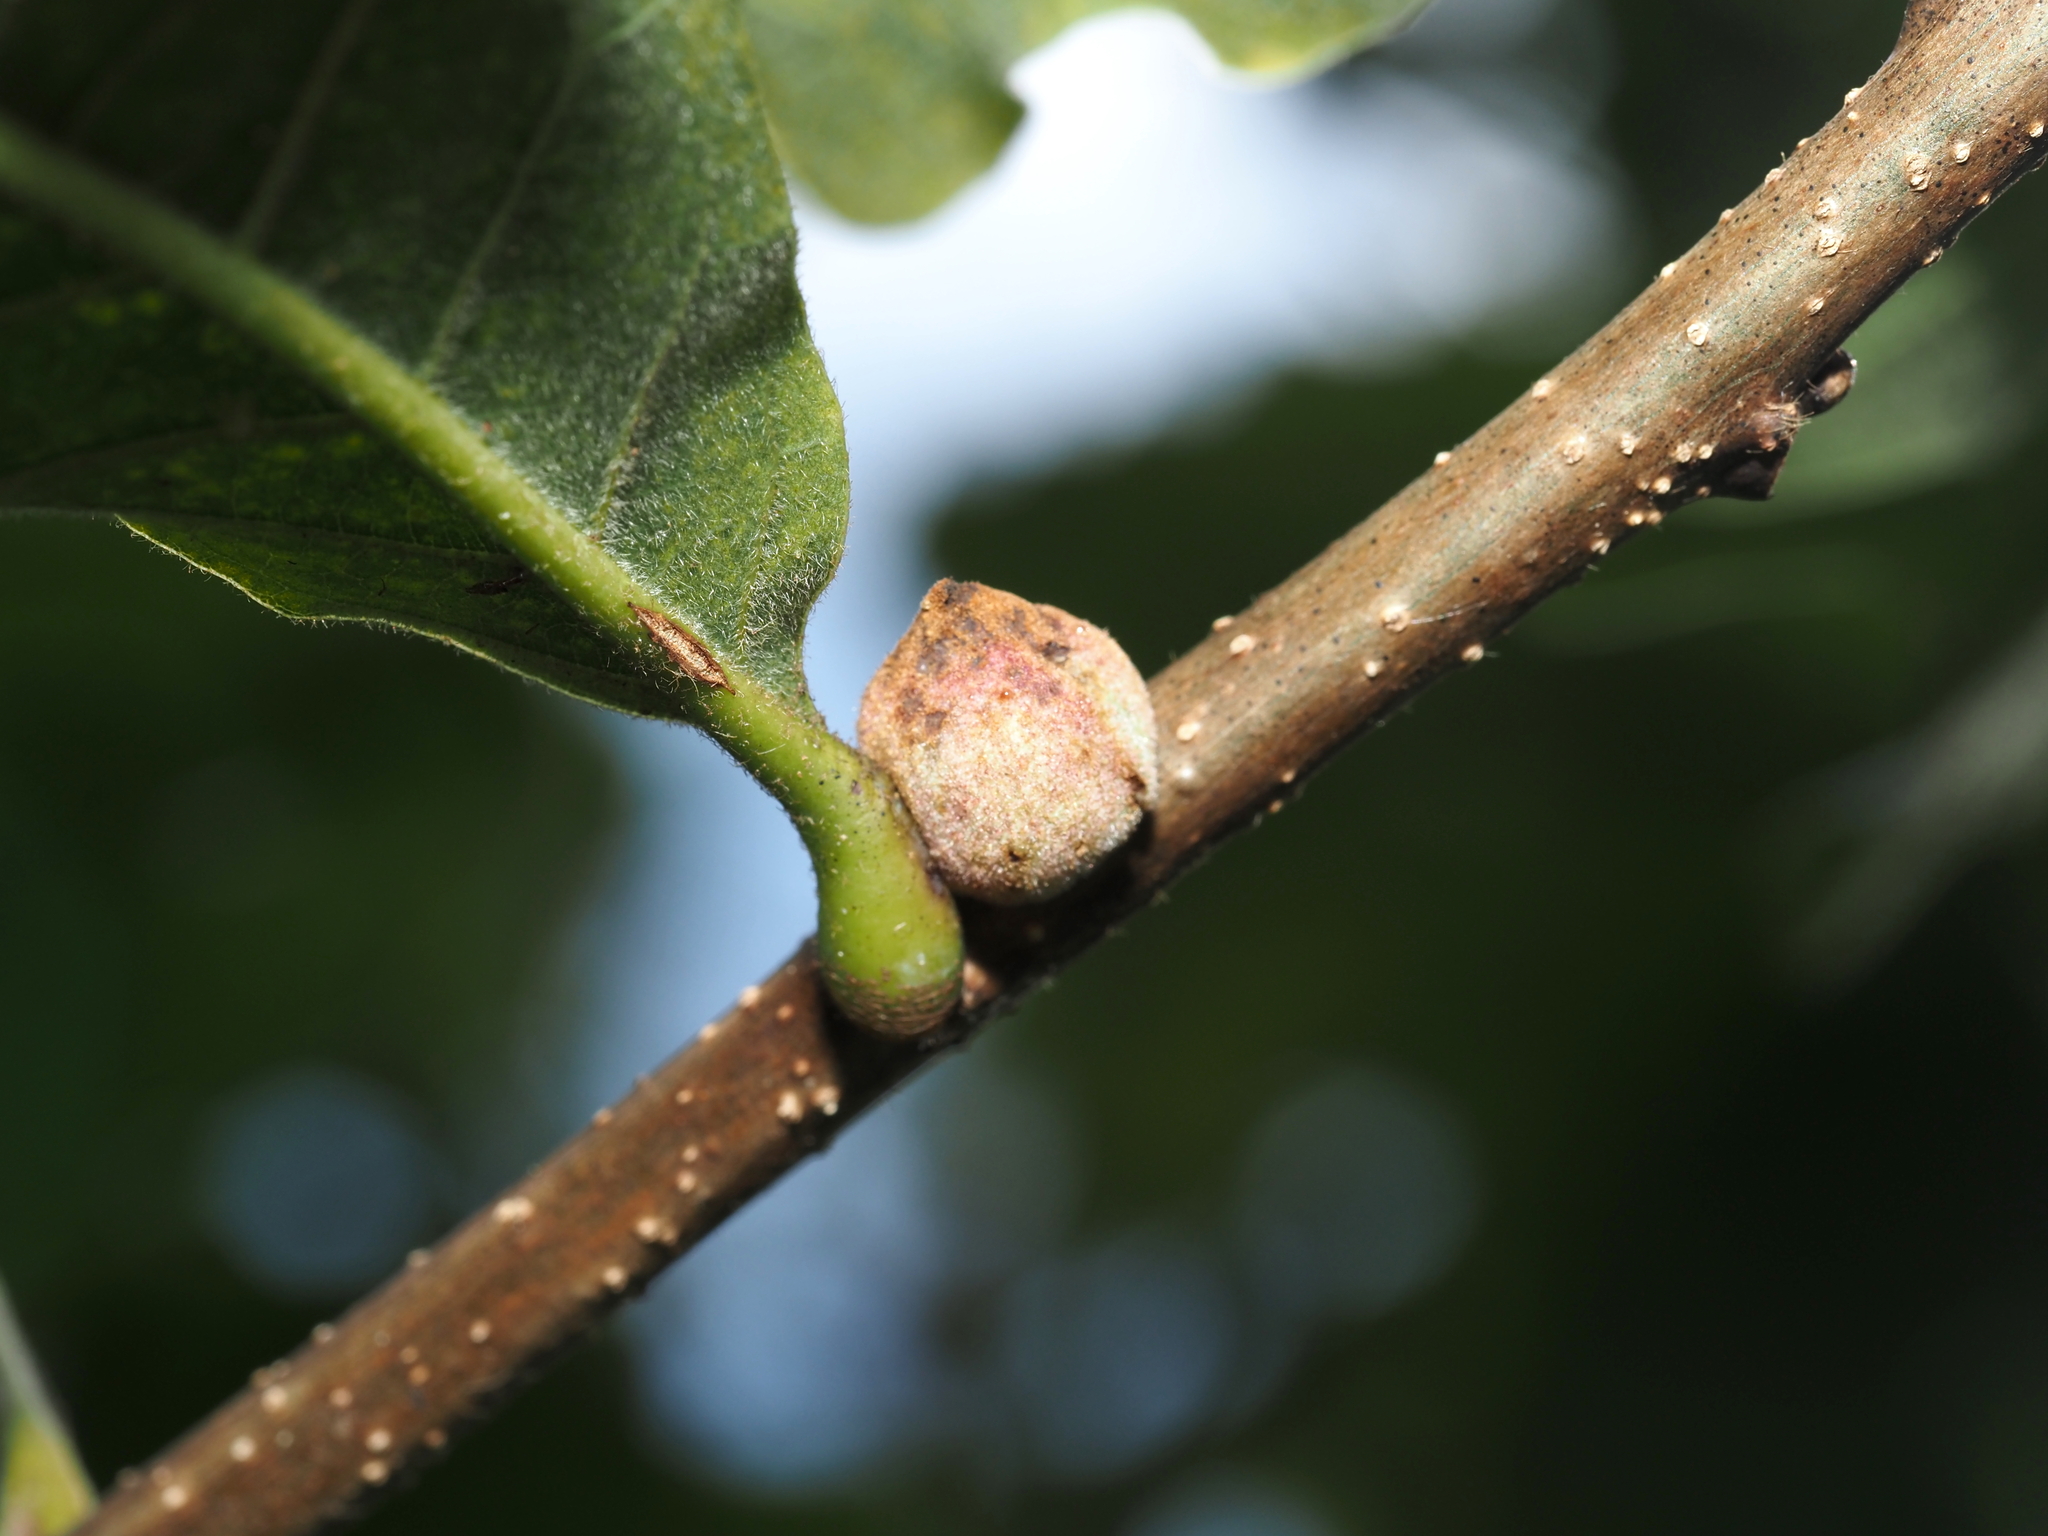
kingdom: Animalia
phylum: Arthropoda
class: Insecta
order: Hymenoptera
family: Cynipidae
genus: Disholcaspis
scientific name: Disholcaspis
